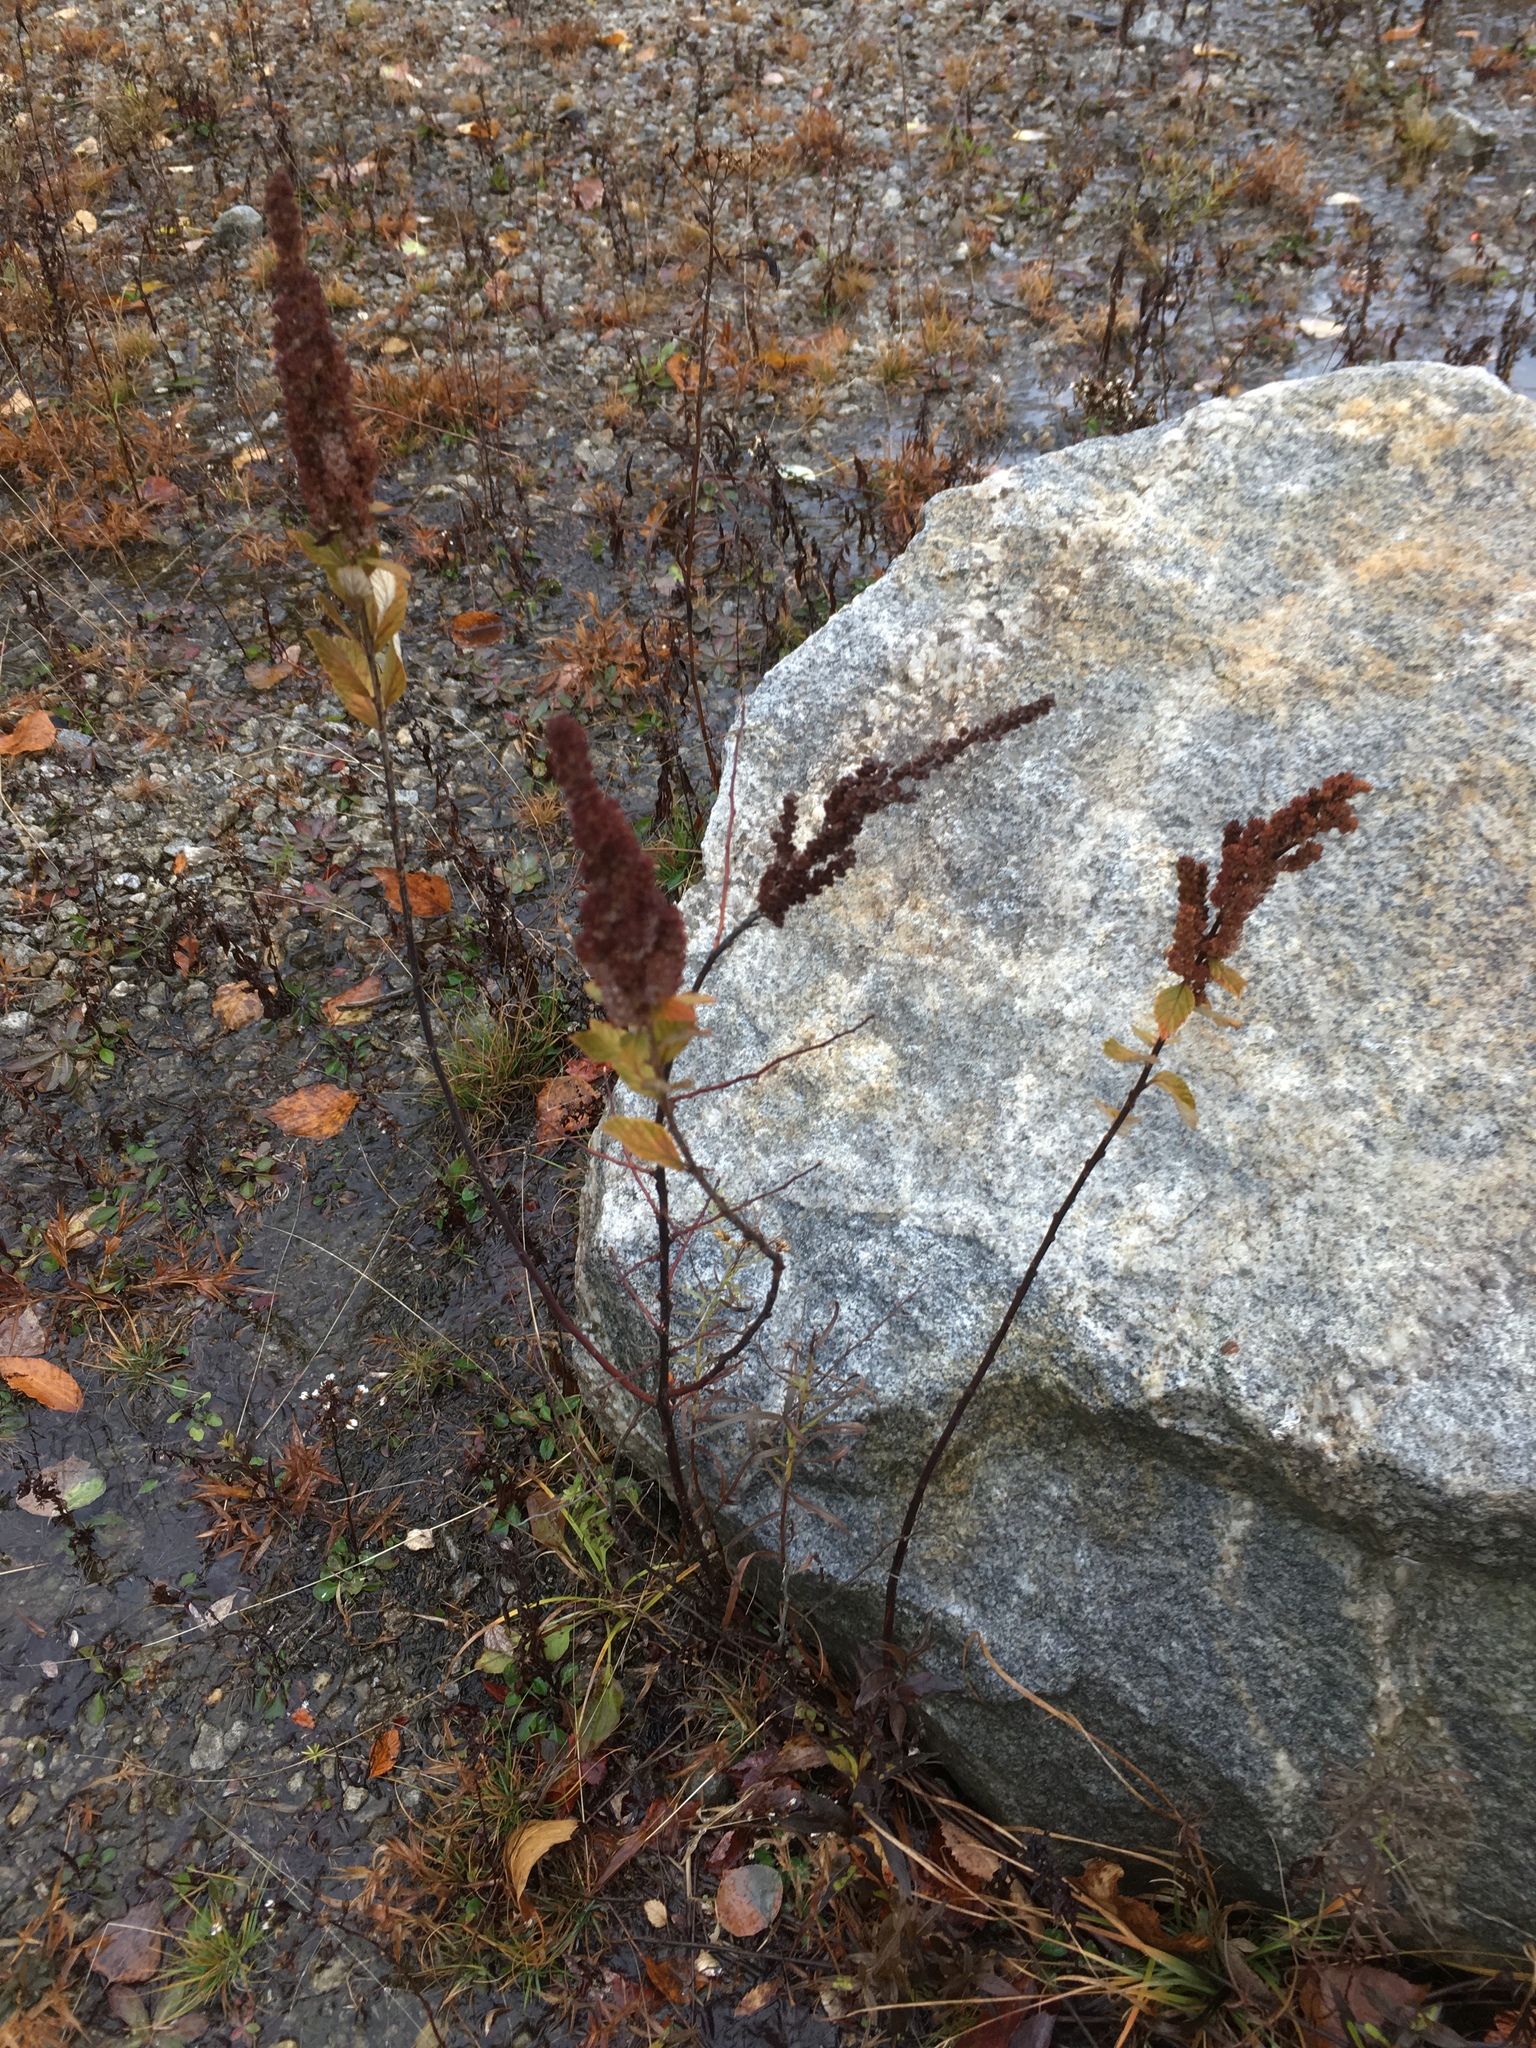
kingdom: Plantae
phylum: Tracheophyta
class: Magnoliopsida
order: Rosales
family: Rosaceae
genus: Spiraea
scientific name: Spiraea tomentosa
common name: Hardhack
